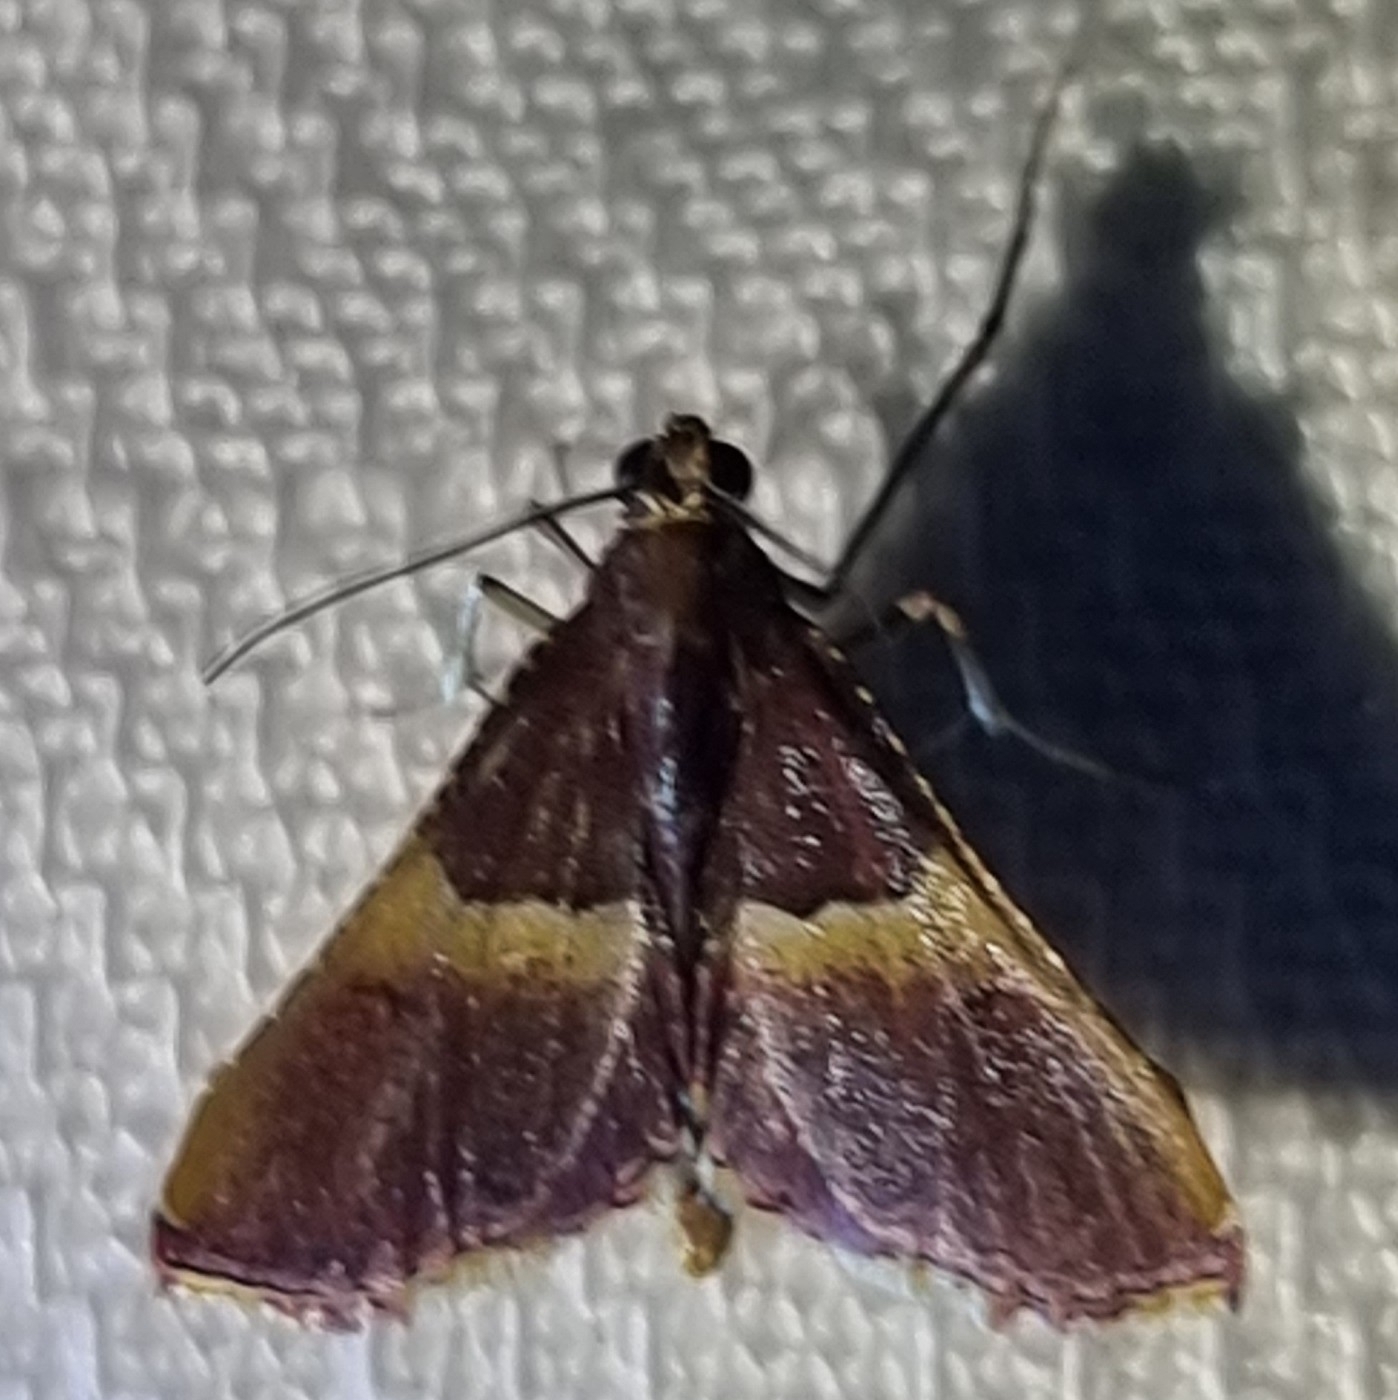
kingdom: Animalia
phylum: Arthropoda
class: Insecta
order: Lepidoptera
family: Pyralidae
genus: Endotricha
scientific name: Endotricha mesenterialis
